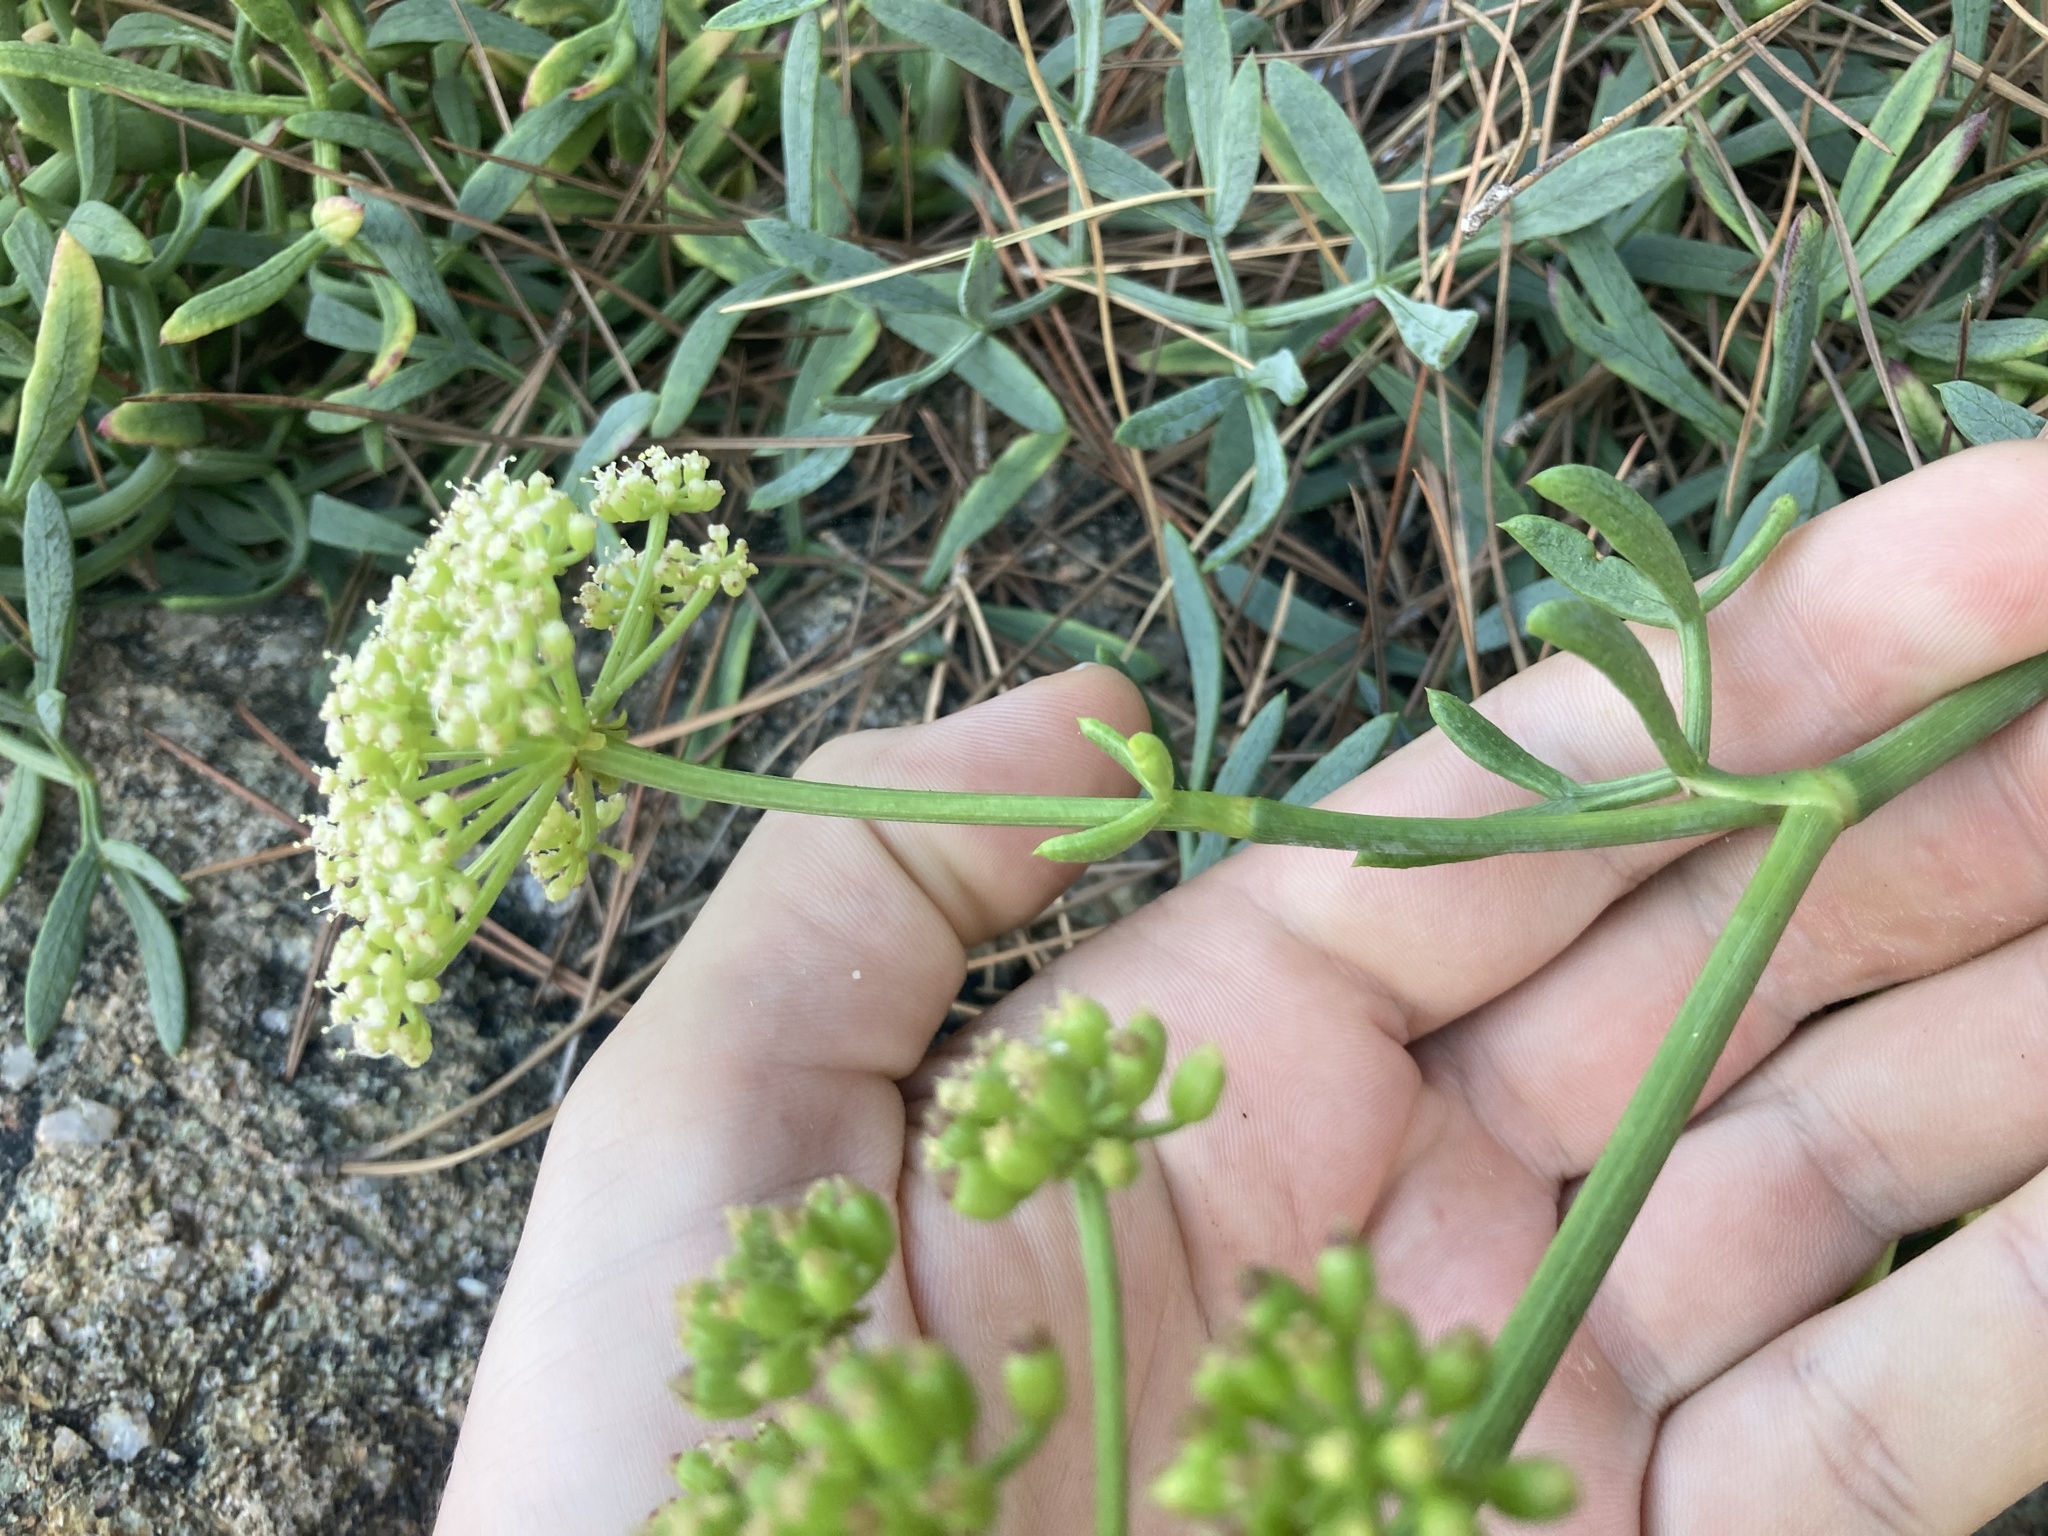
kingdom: Plantae
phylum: Tracheophyta
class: Magnoliopsida
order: Apiales
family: Apiaceae
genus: Crithmum
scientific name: Crithmum maritimum
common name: Rock samphire
